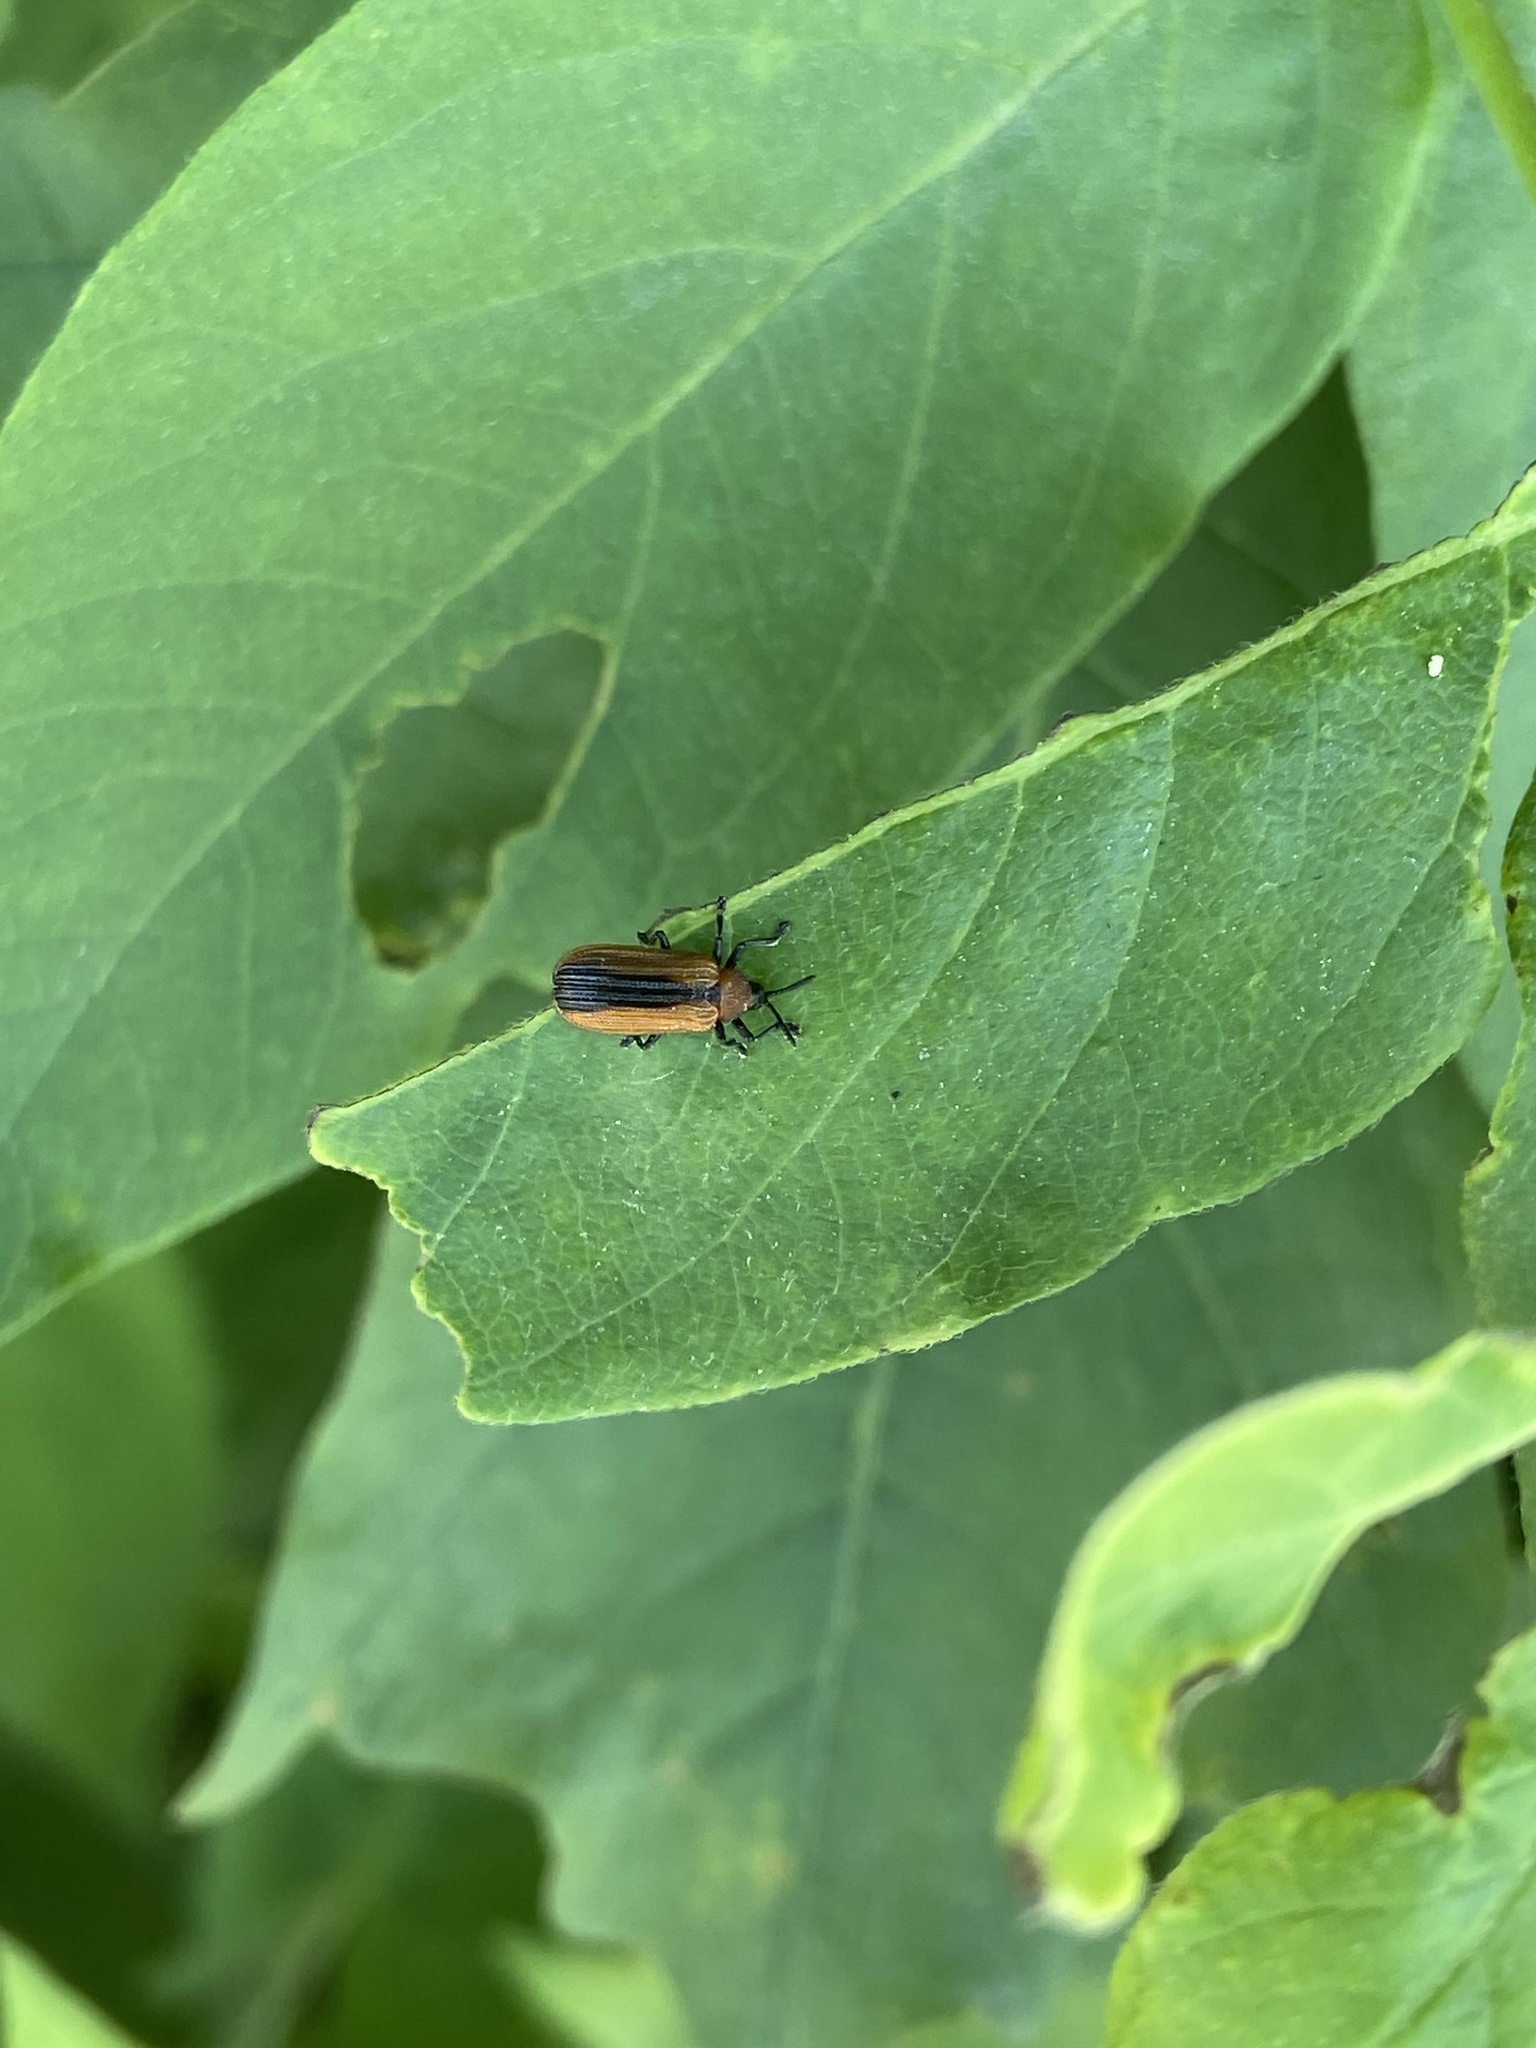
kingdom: Animalia
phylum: Arthropoda
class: Insecta
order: Coleoptera
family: Chrysomelidae
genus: Odontota
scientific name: Odontota dorsalis
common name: Locust leaf-miner beetle
